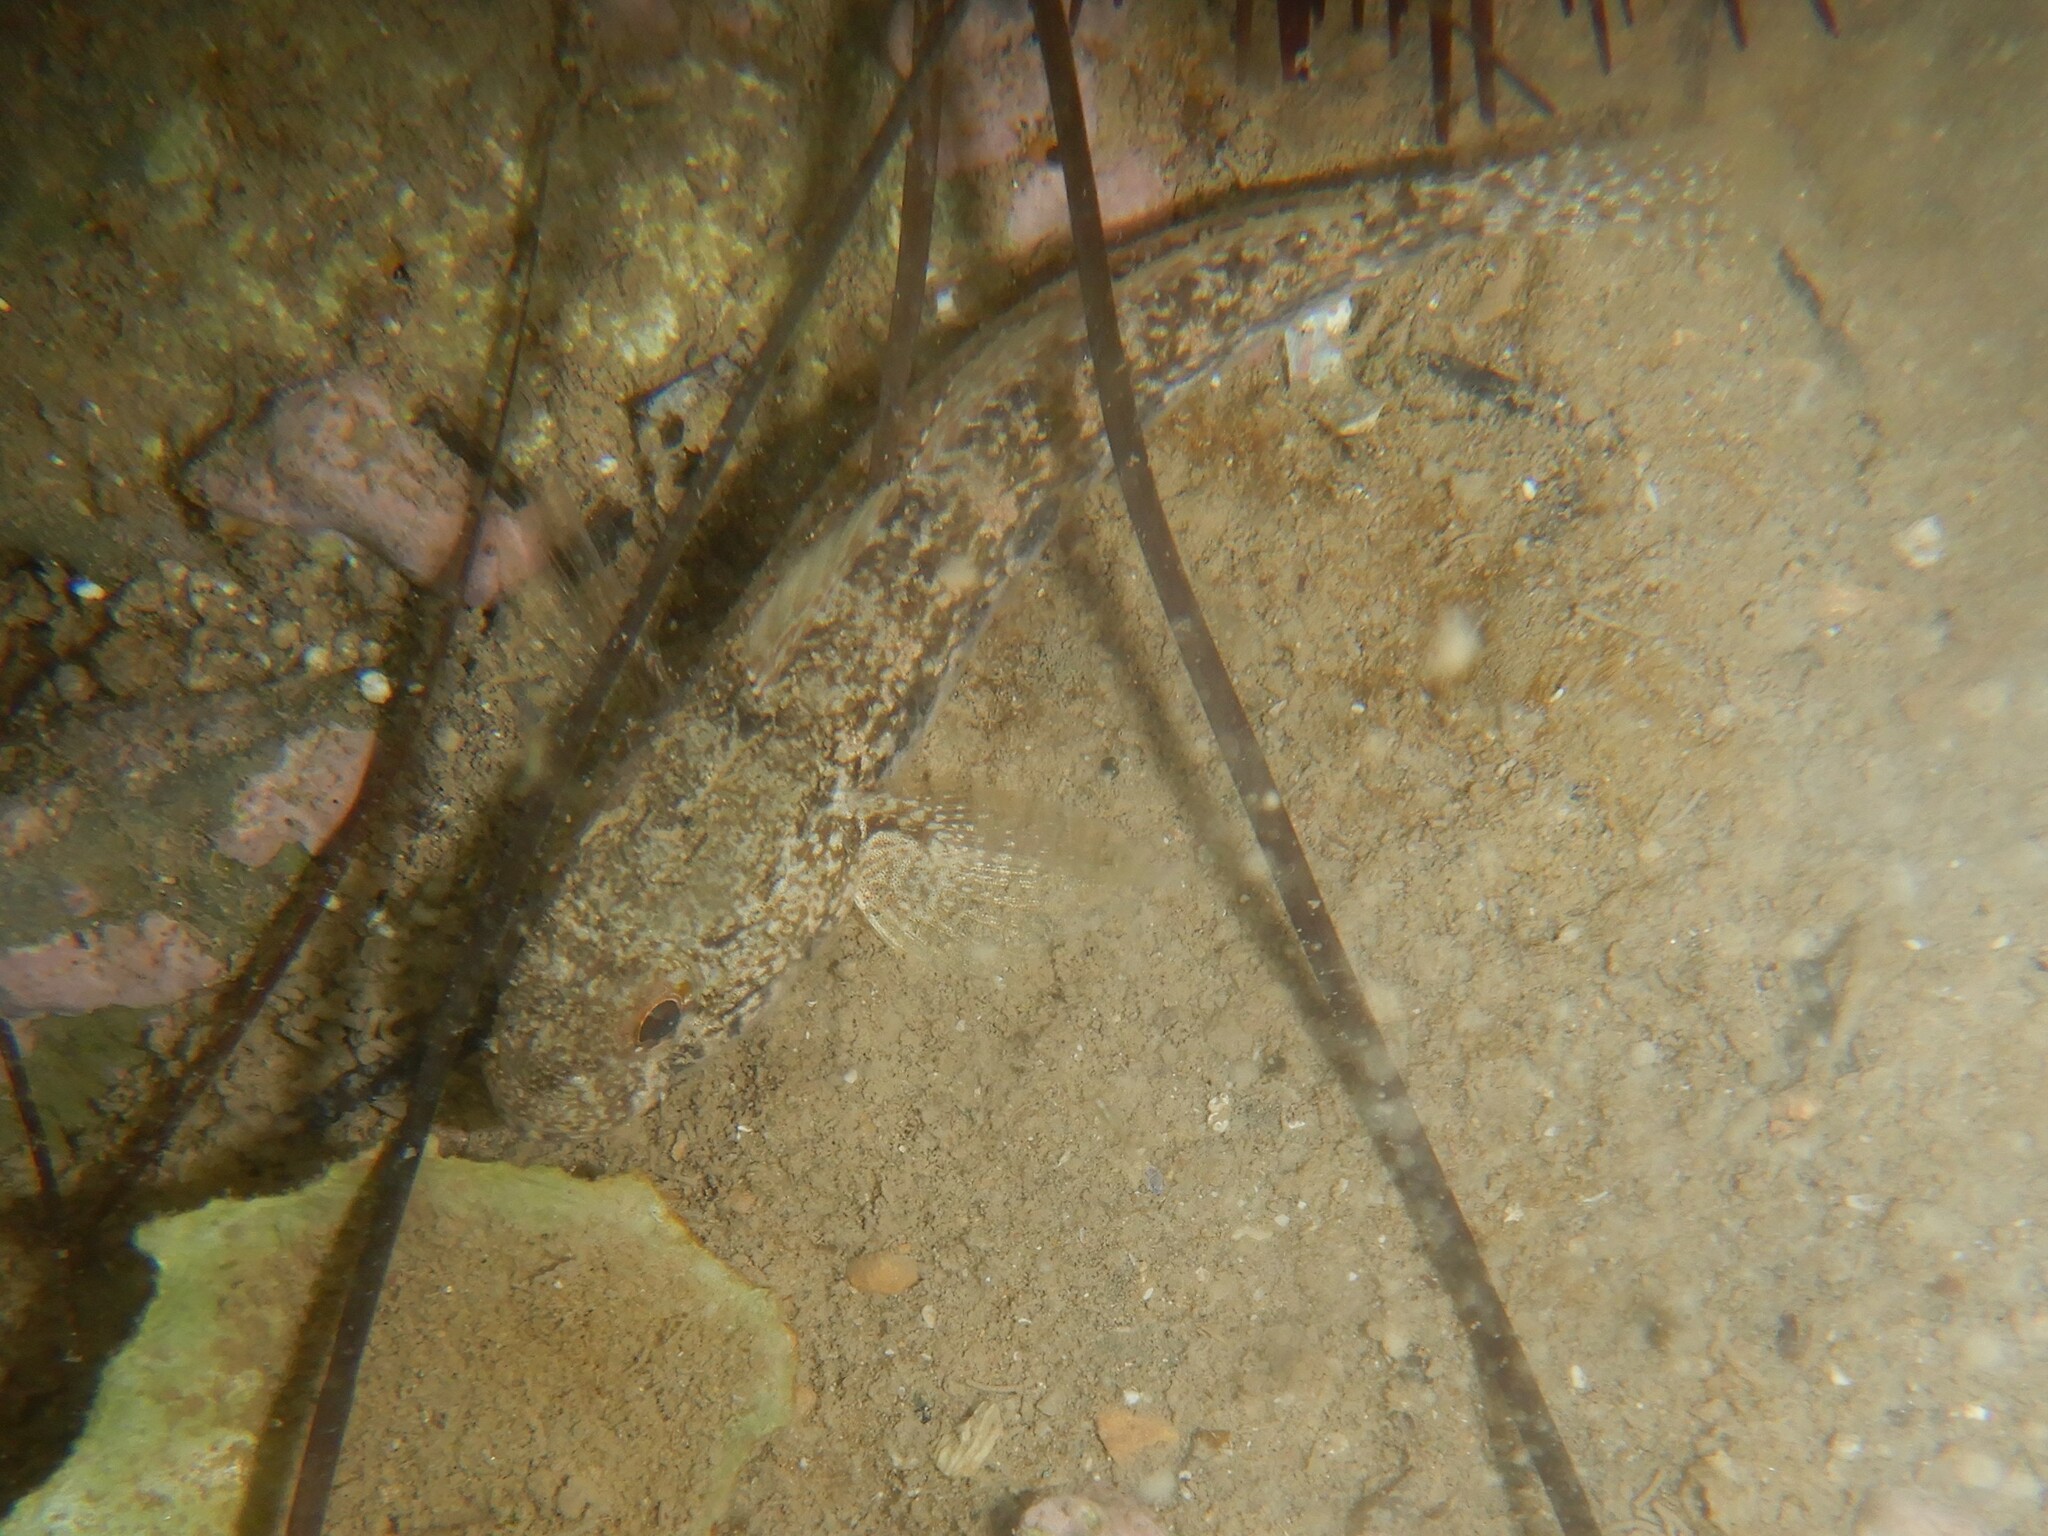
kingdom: Animalia
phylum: Chordata
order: Perciformes
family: Gobiidae
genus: Gobius
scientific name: Gobius niger
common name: Black goby
